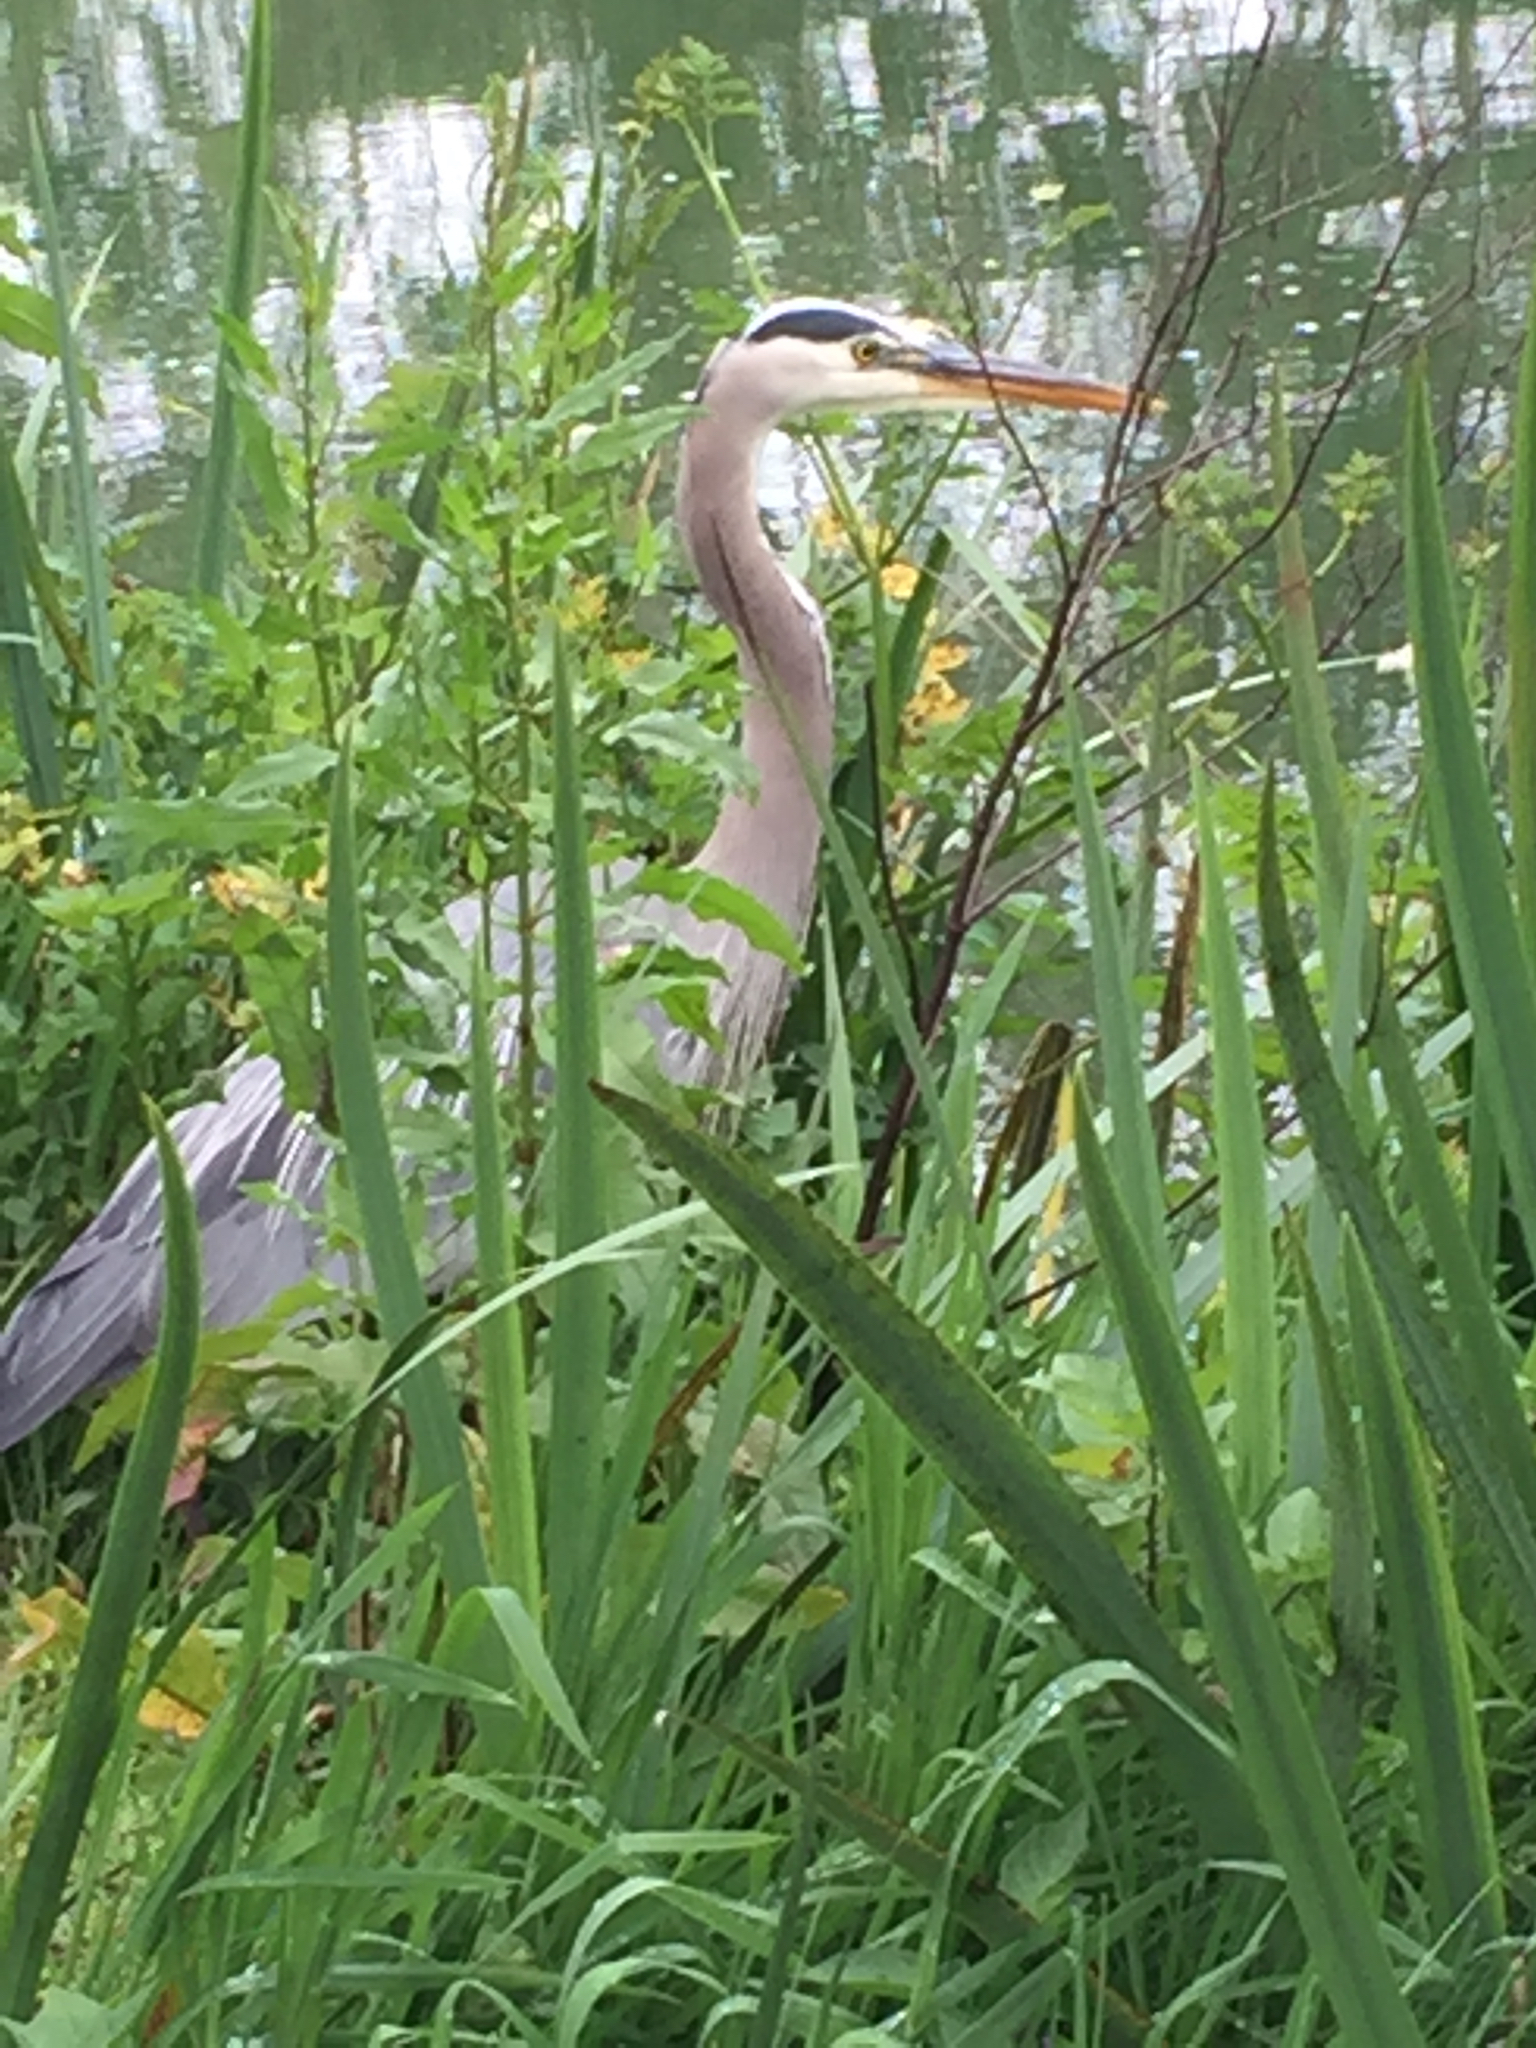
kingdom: Animalia
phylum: Chordata
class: Aves
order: Pelecaniformes
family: Ardeidae
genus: Ardea
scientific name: Ardea herodias
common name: Great blue heron
